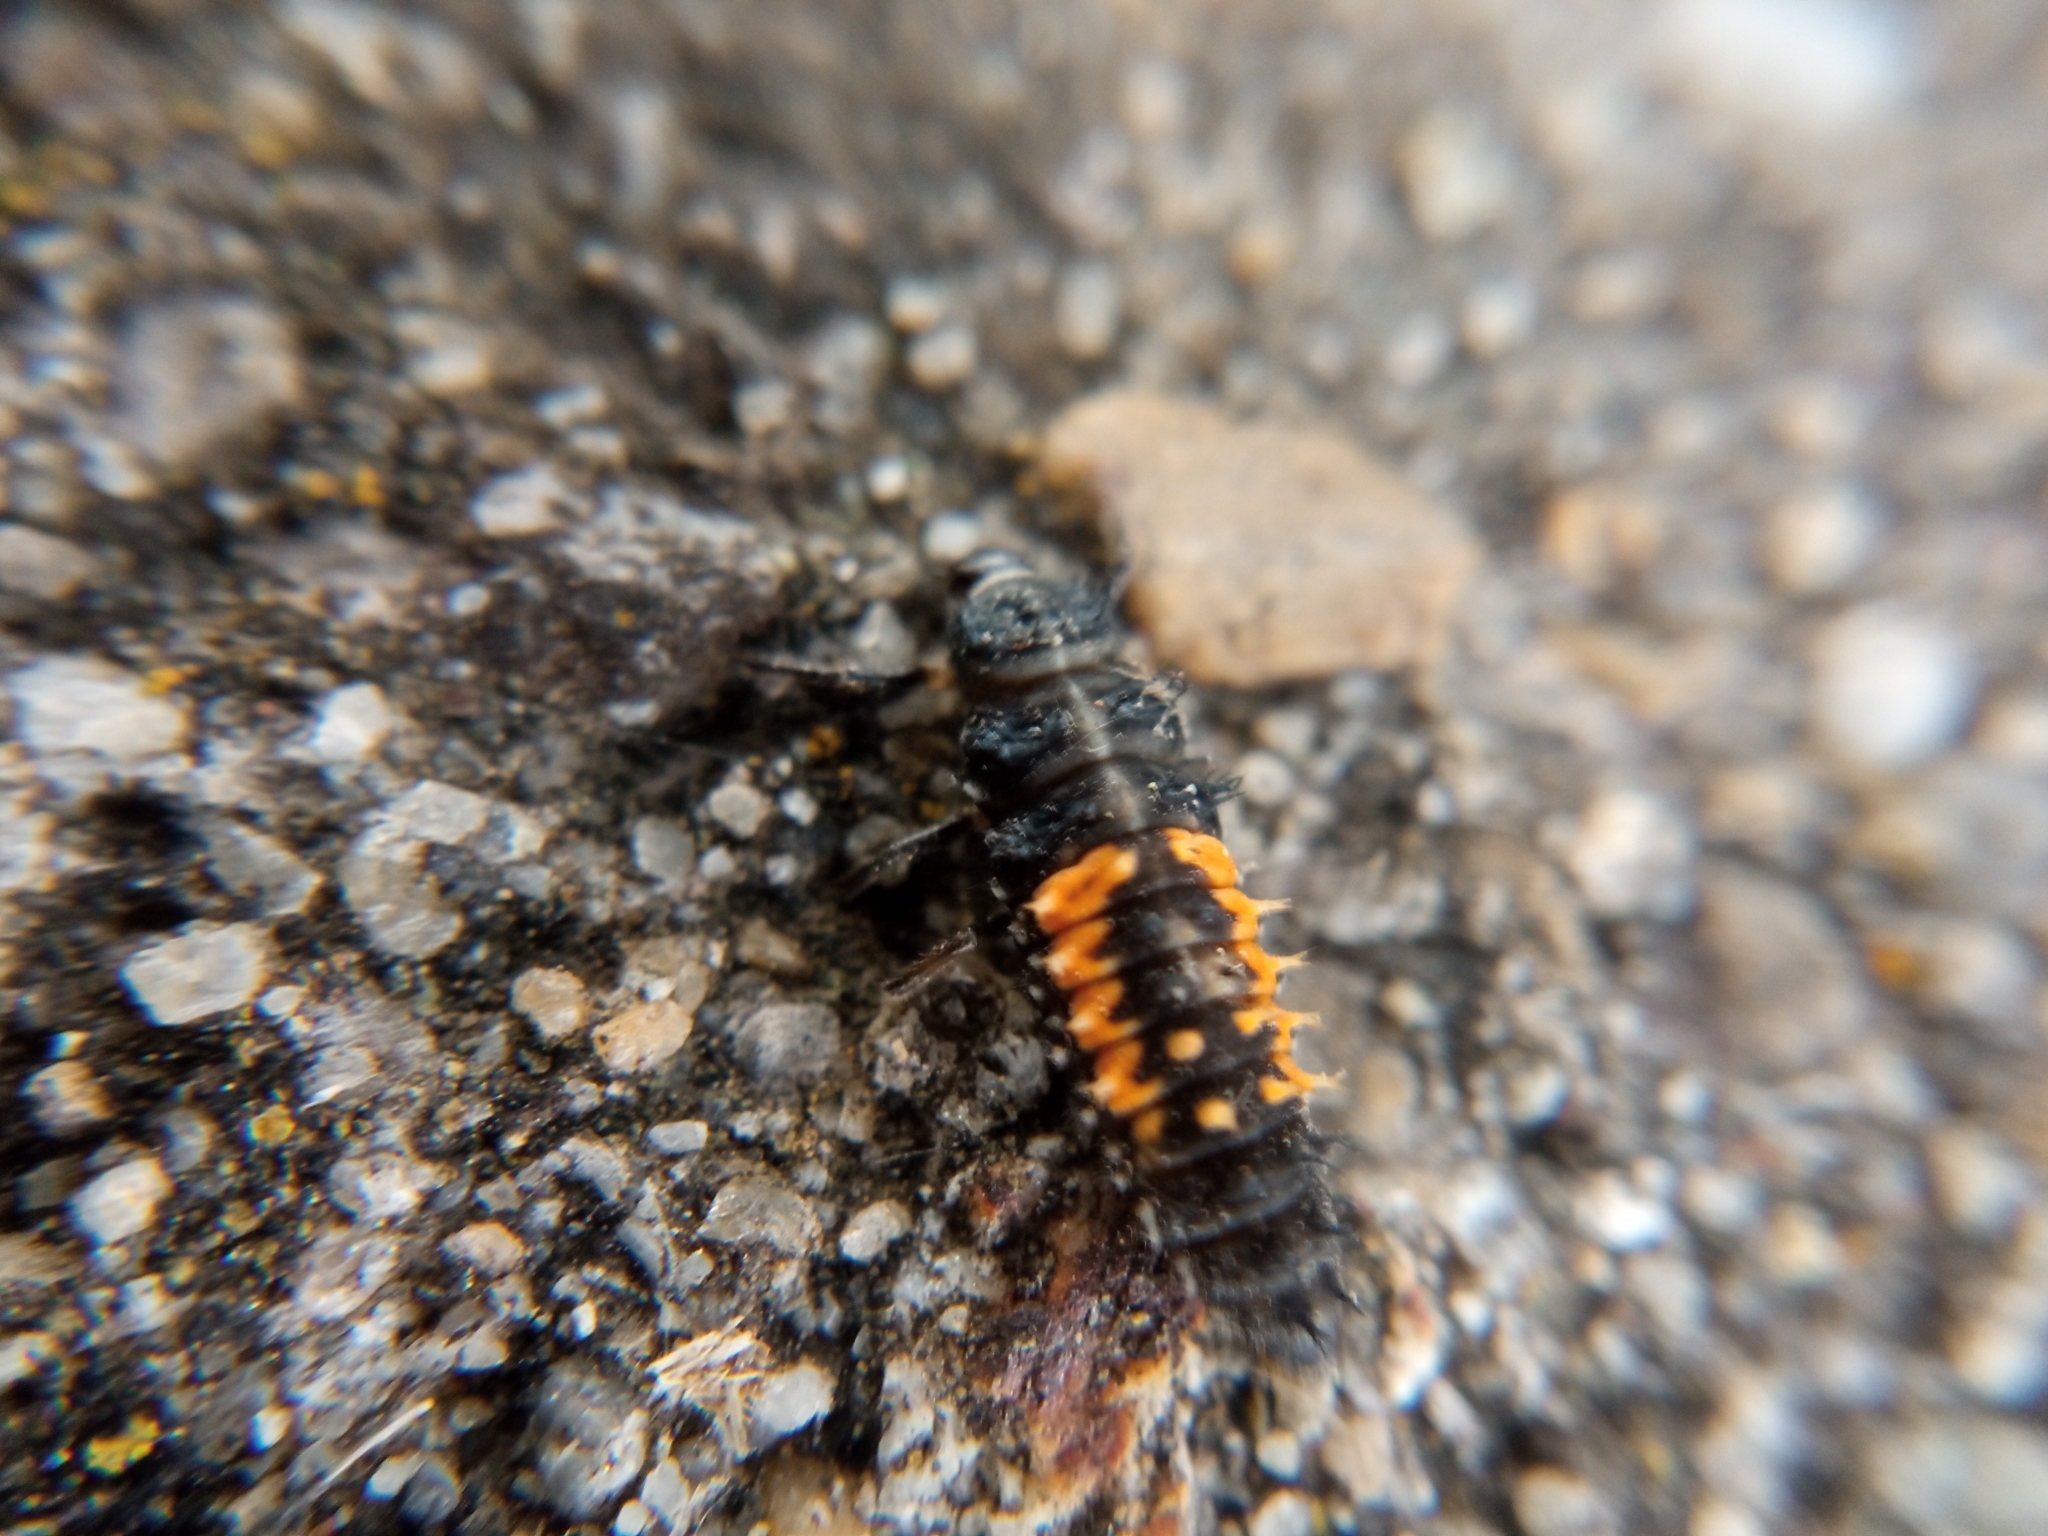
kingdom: Animalia
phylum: Arthropoda
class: Insecta
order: Coleoptera
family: Coccinellidae
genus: Harmonia
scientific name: Harmonia axyridis
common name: Harlequin ladybird
